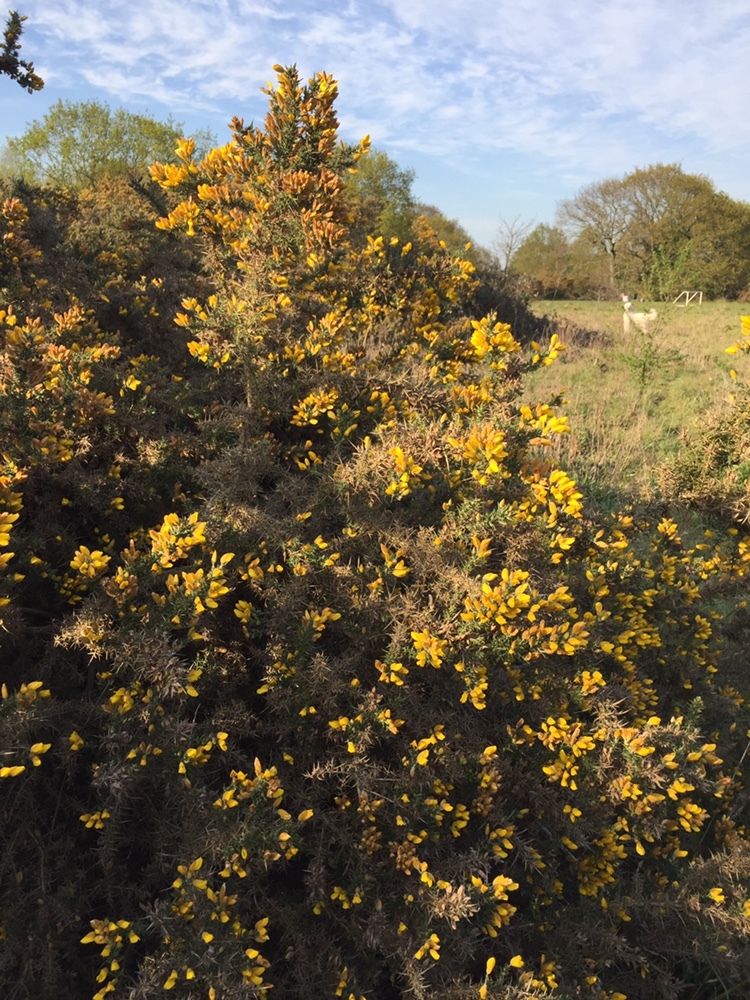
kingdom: Plantae
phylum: Tracheophyta
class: Magnoliopsida
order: Fabales
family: Fabaceae
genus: Ulex
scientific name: Ulex europaeus
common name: Common gorse
